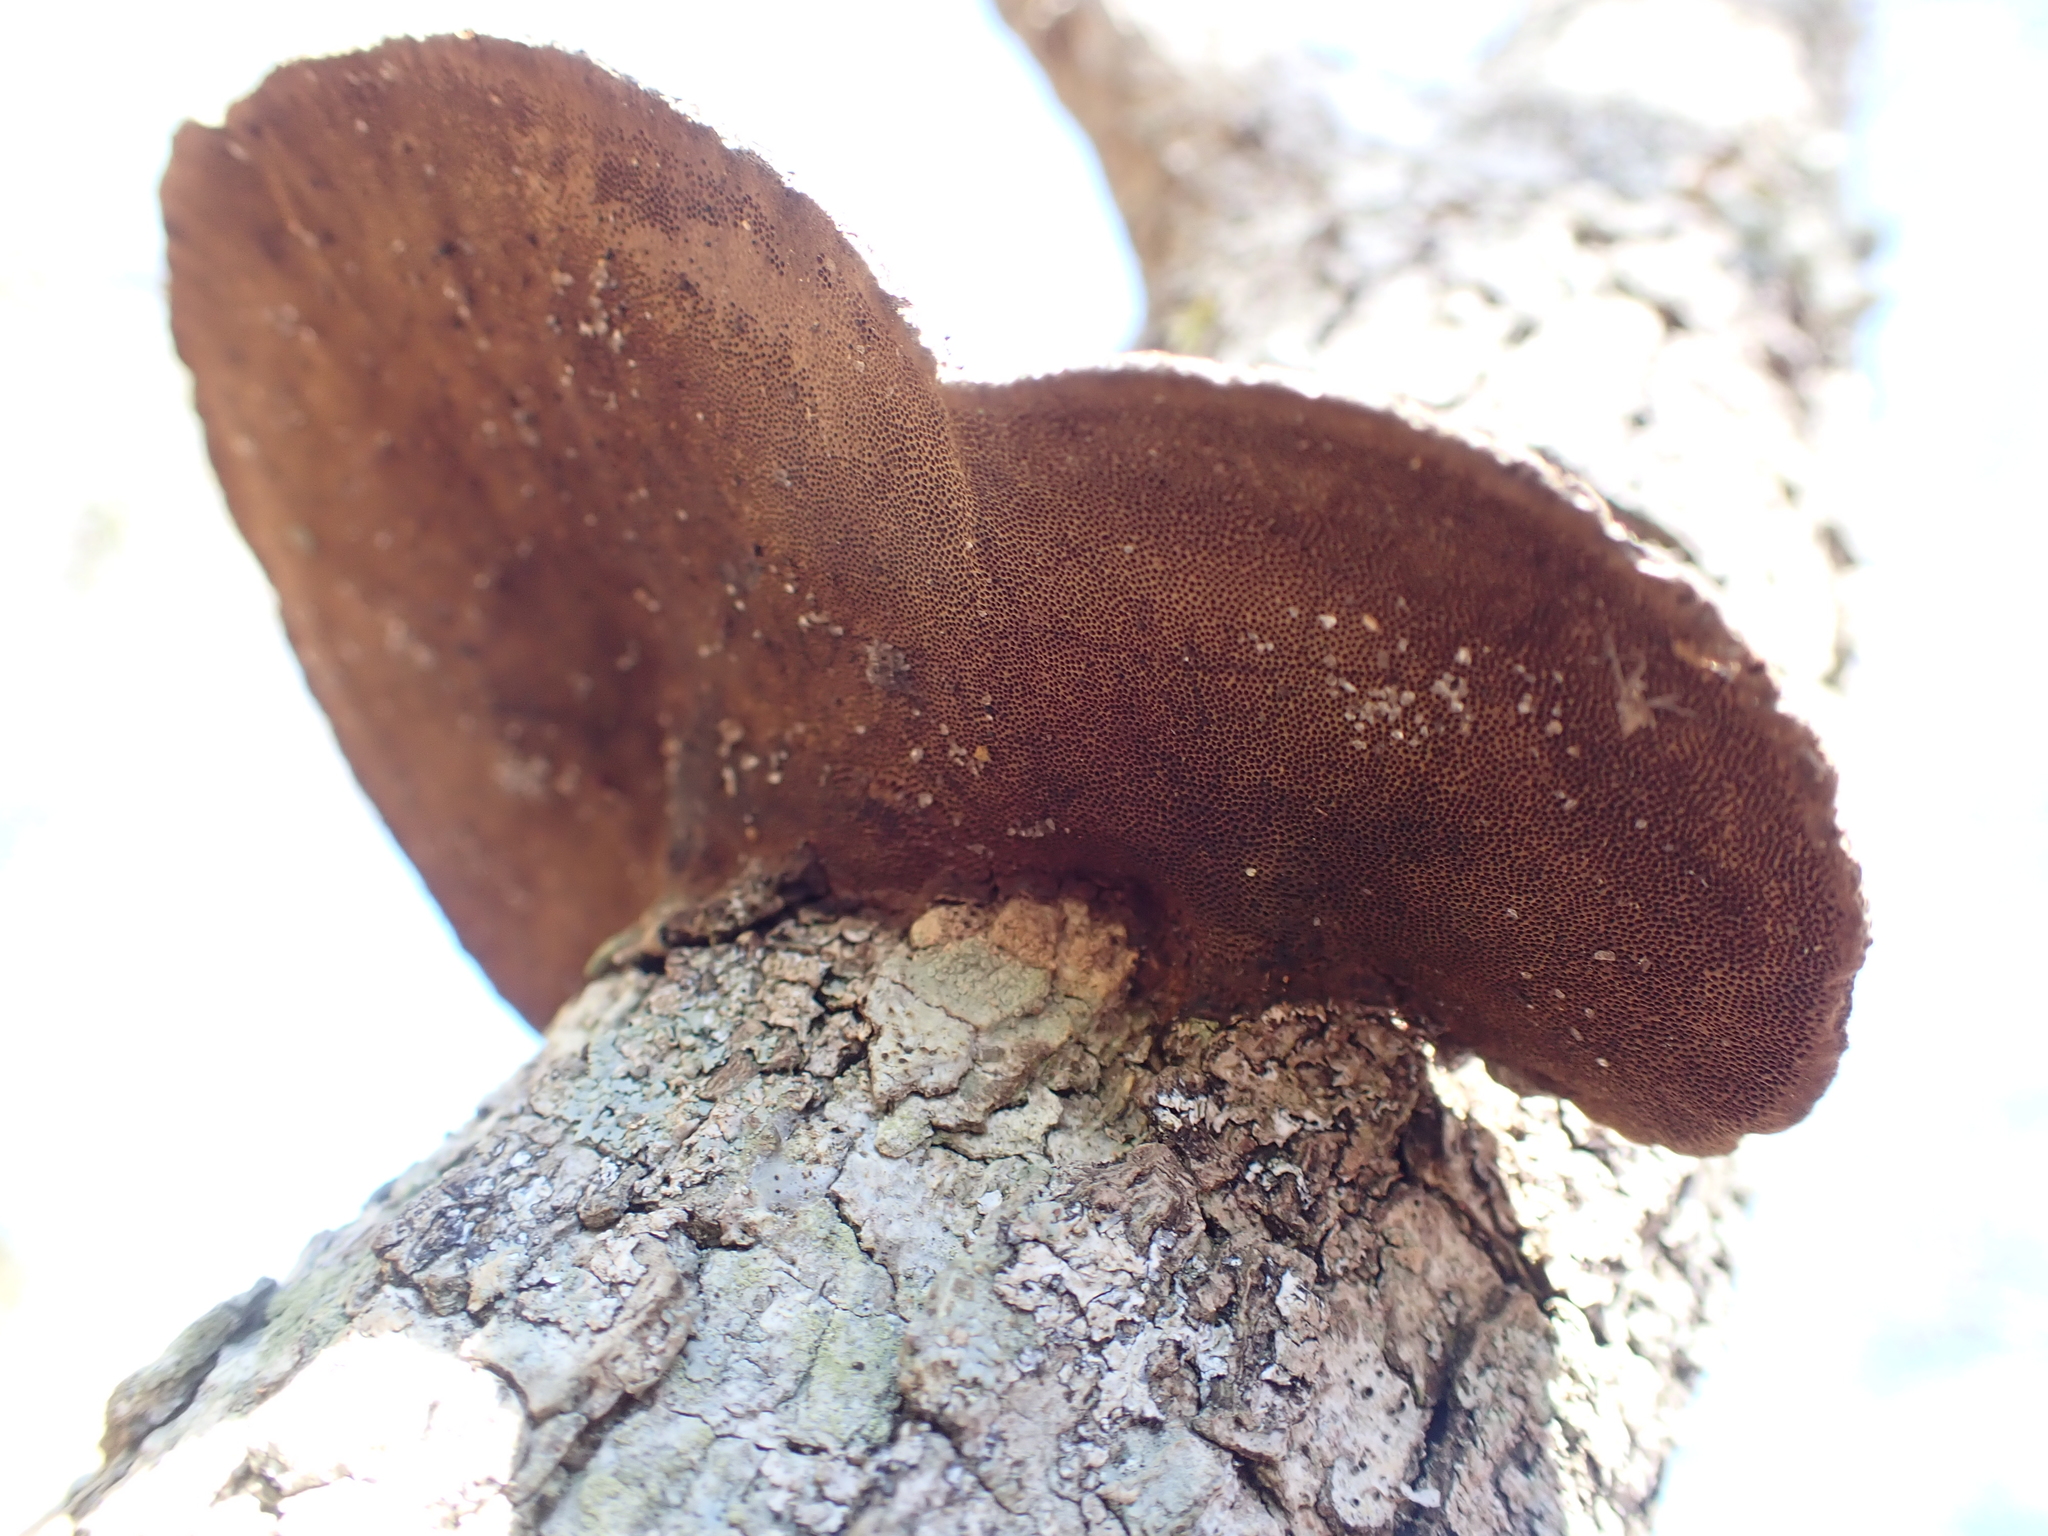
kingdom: Fungi
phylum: Basidiomycota
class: Agaricomycetes
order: Polyporales
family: Cerrenaceae
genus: Cerrena
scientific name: Cerrena hydnoides
